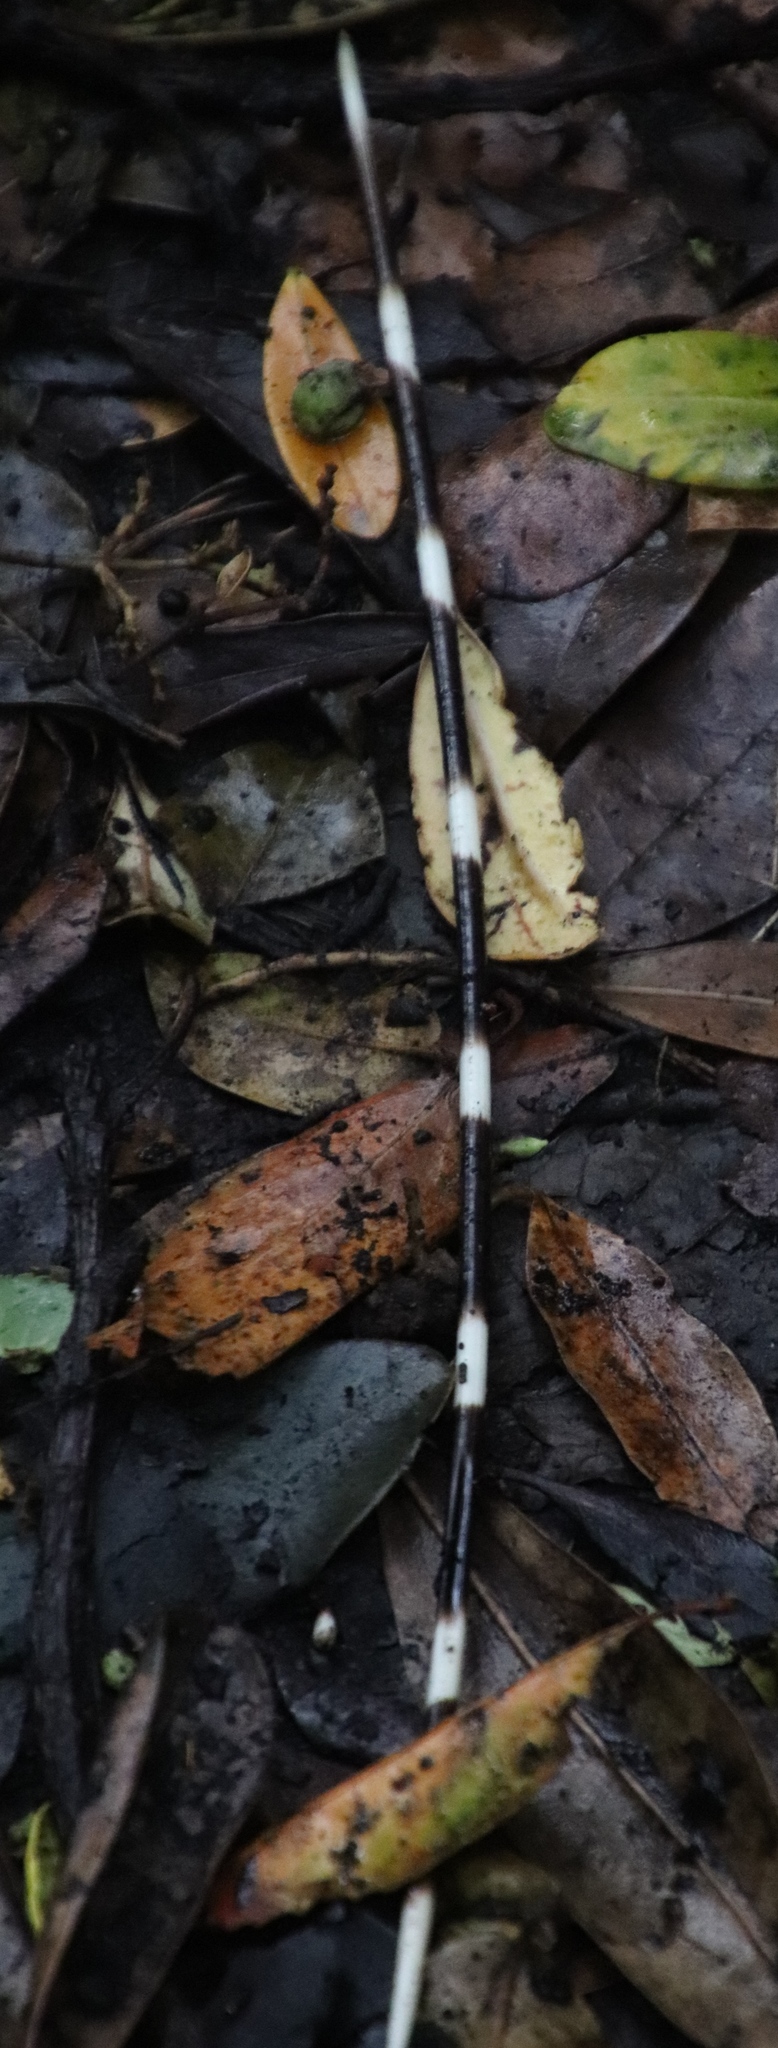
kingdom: Animalia
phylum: Chordata
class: Mammalia
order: Rodentia
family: Hystricidae
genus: Hystrix
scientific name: Hystrix africaeaustralis
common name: Cape porcupine
